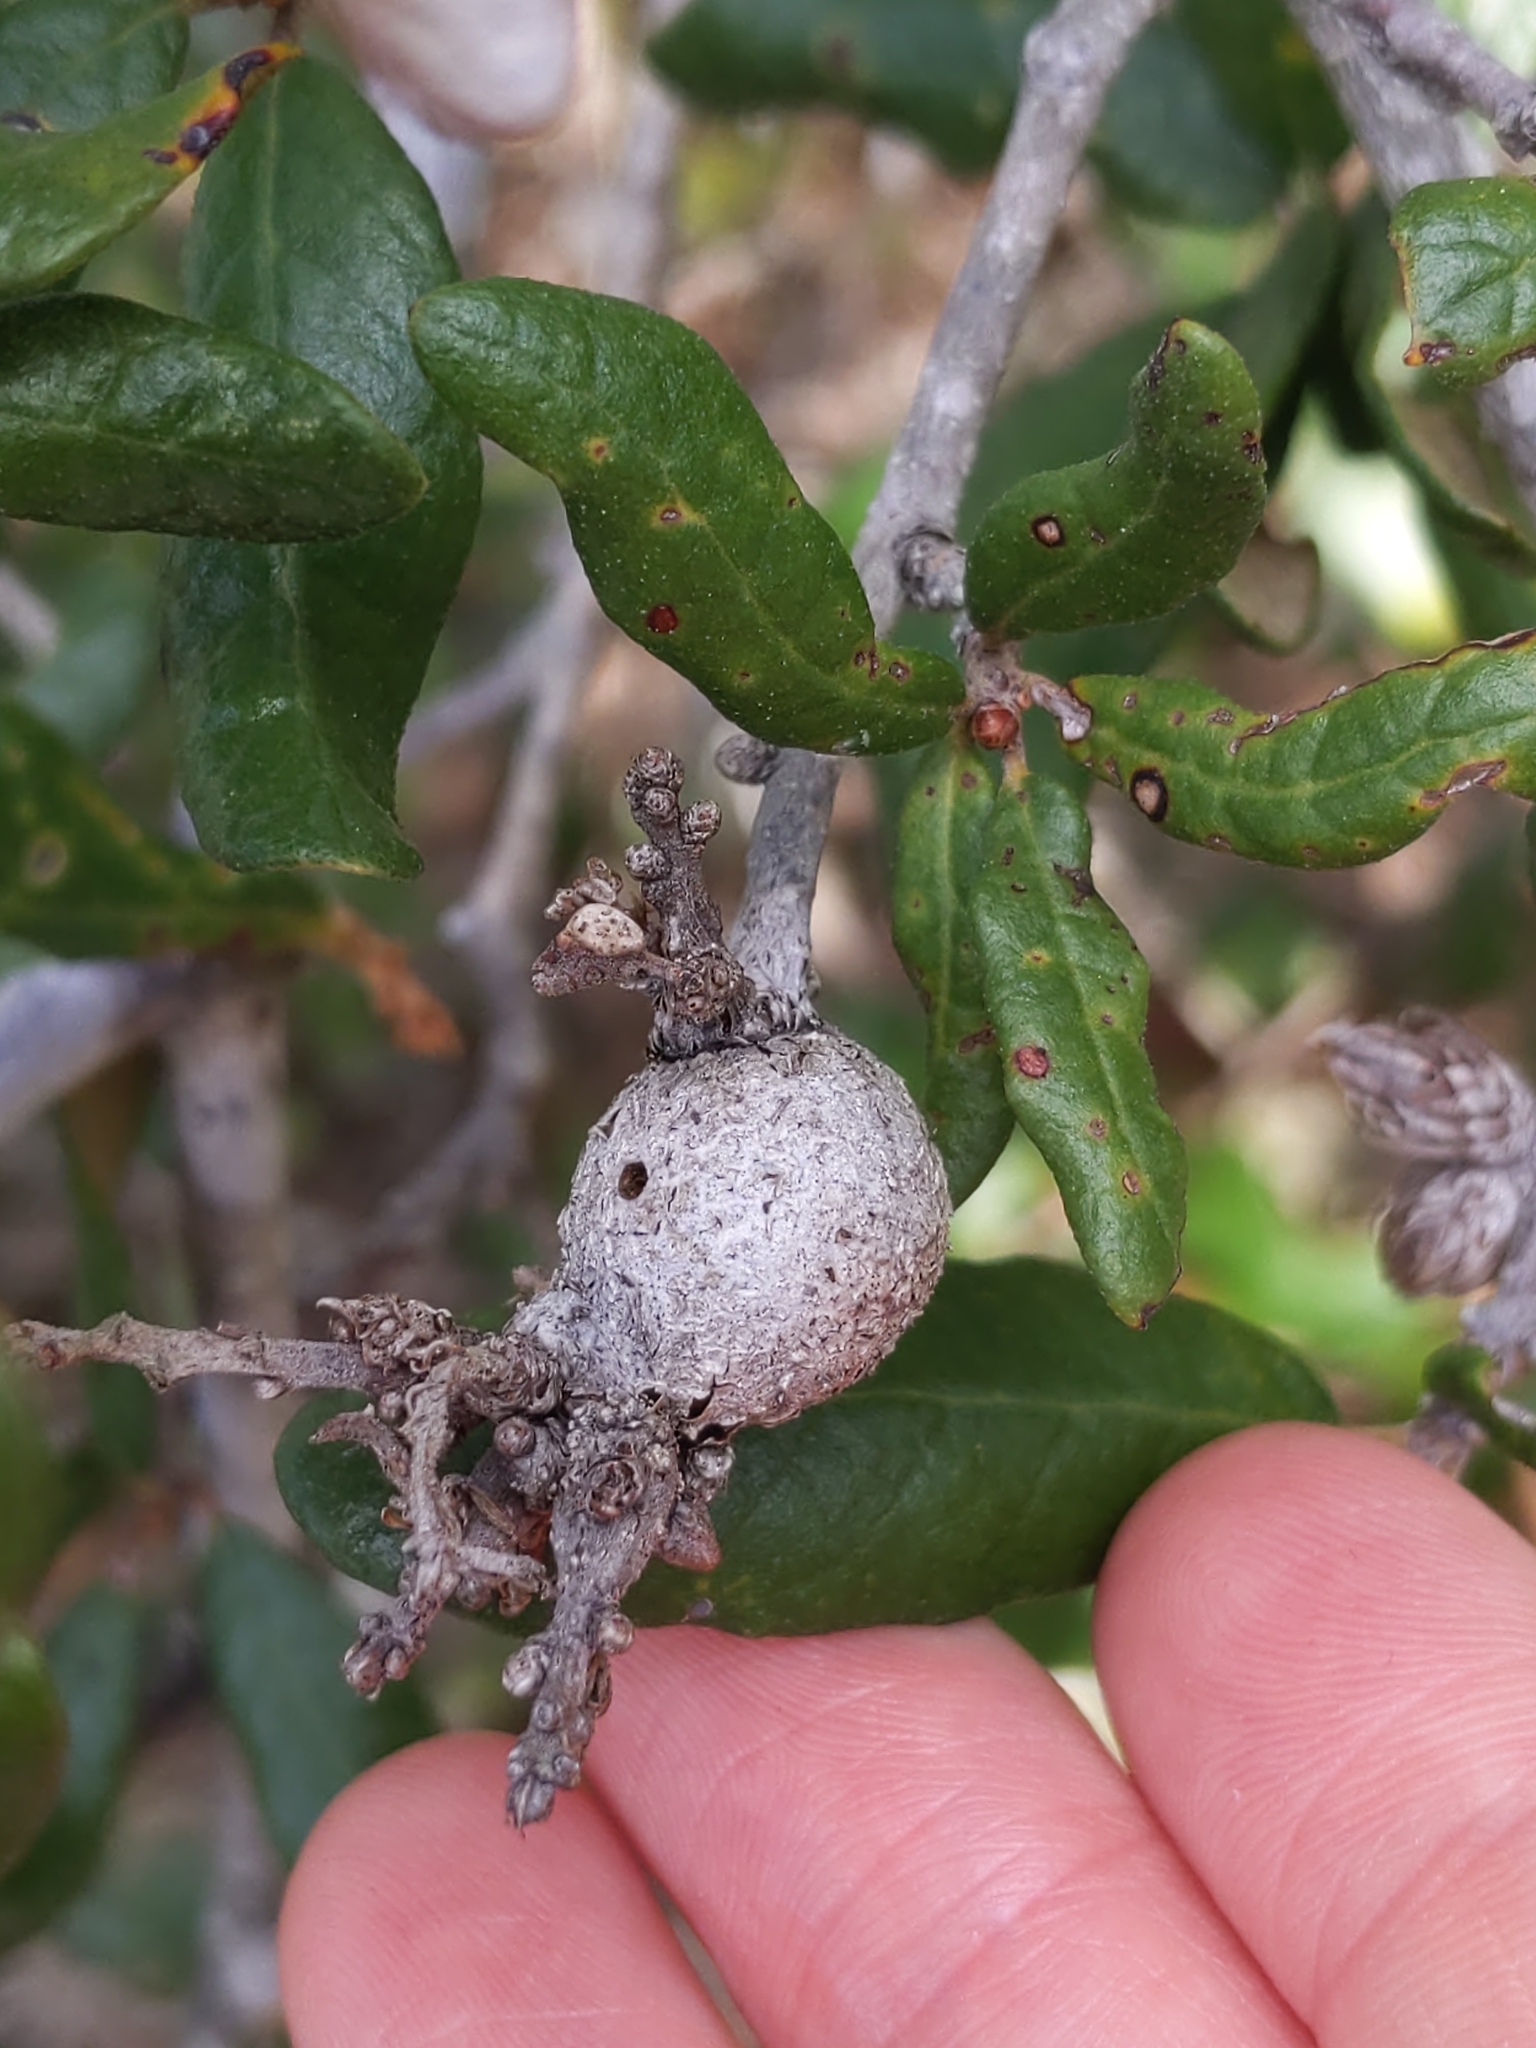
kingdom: Animalia
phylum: Arthropoda
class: Insecta
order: Hymenoptera
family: Cynipidae
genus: Callirhytis
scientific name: Callirhytis
